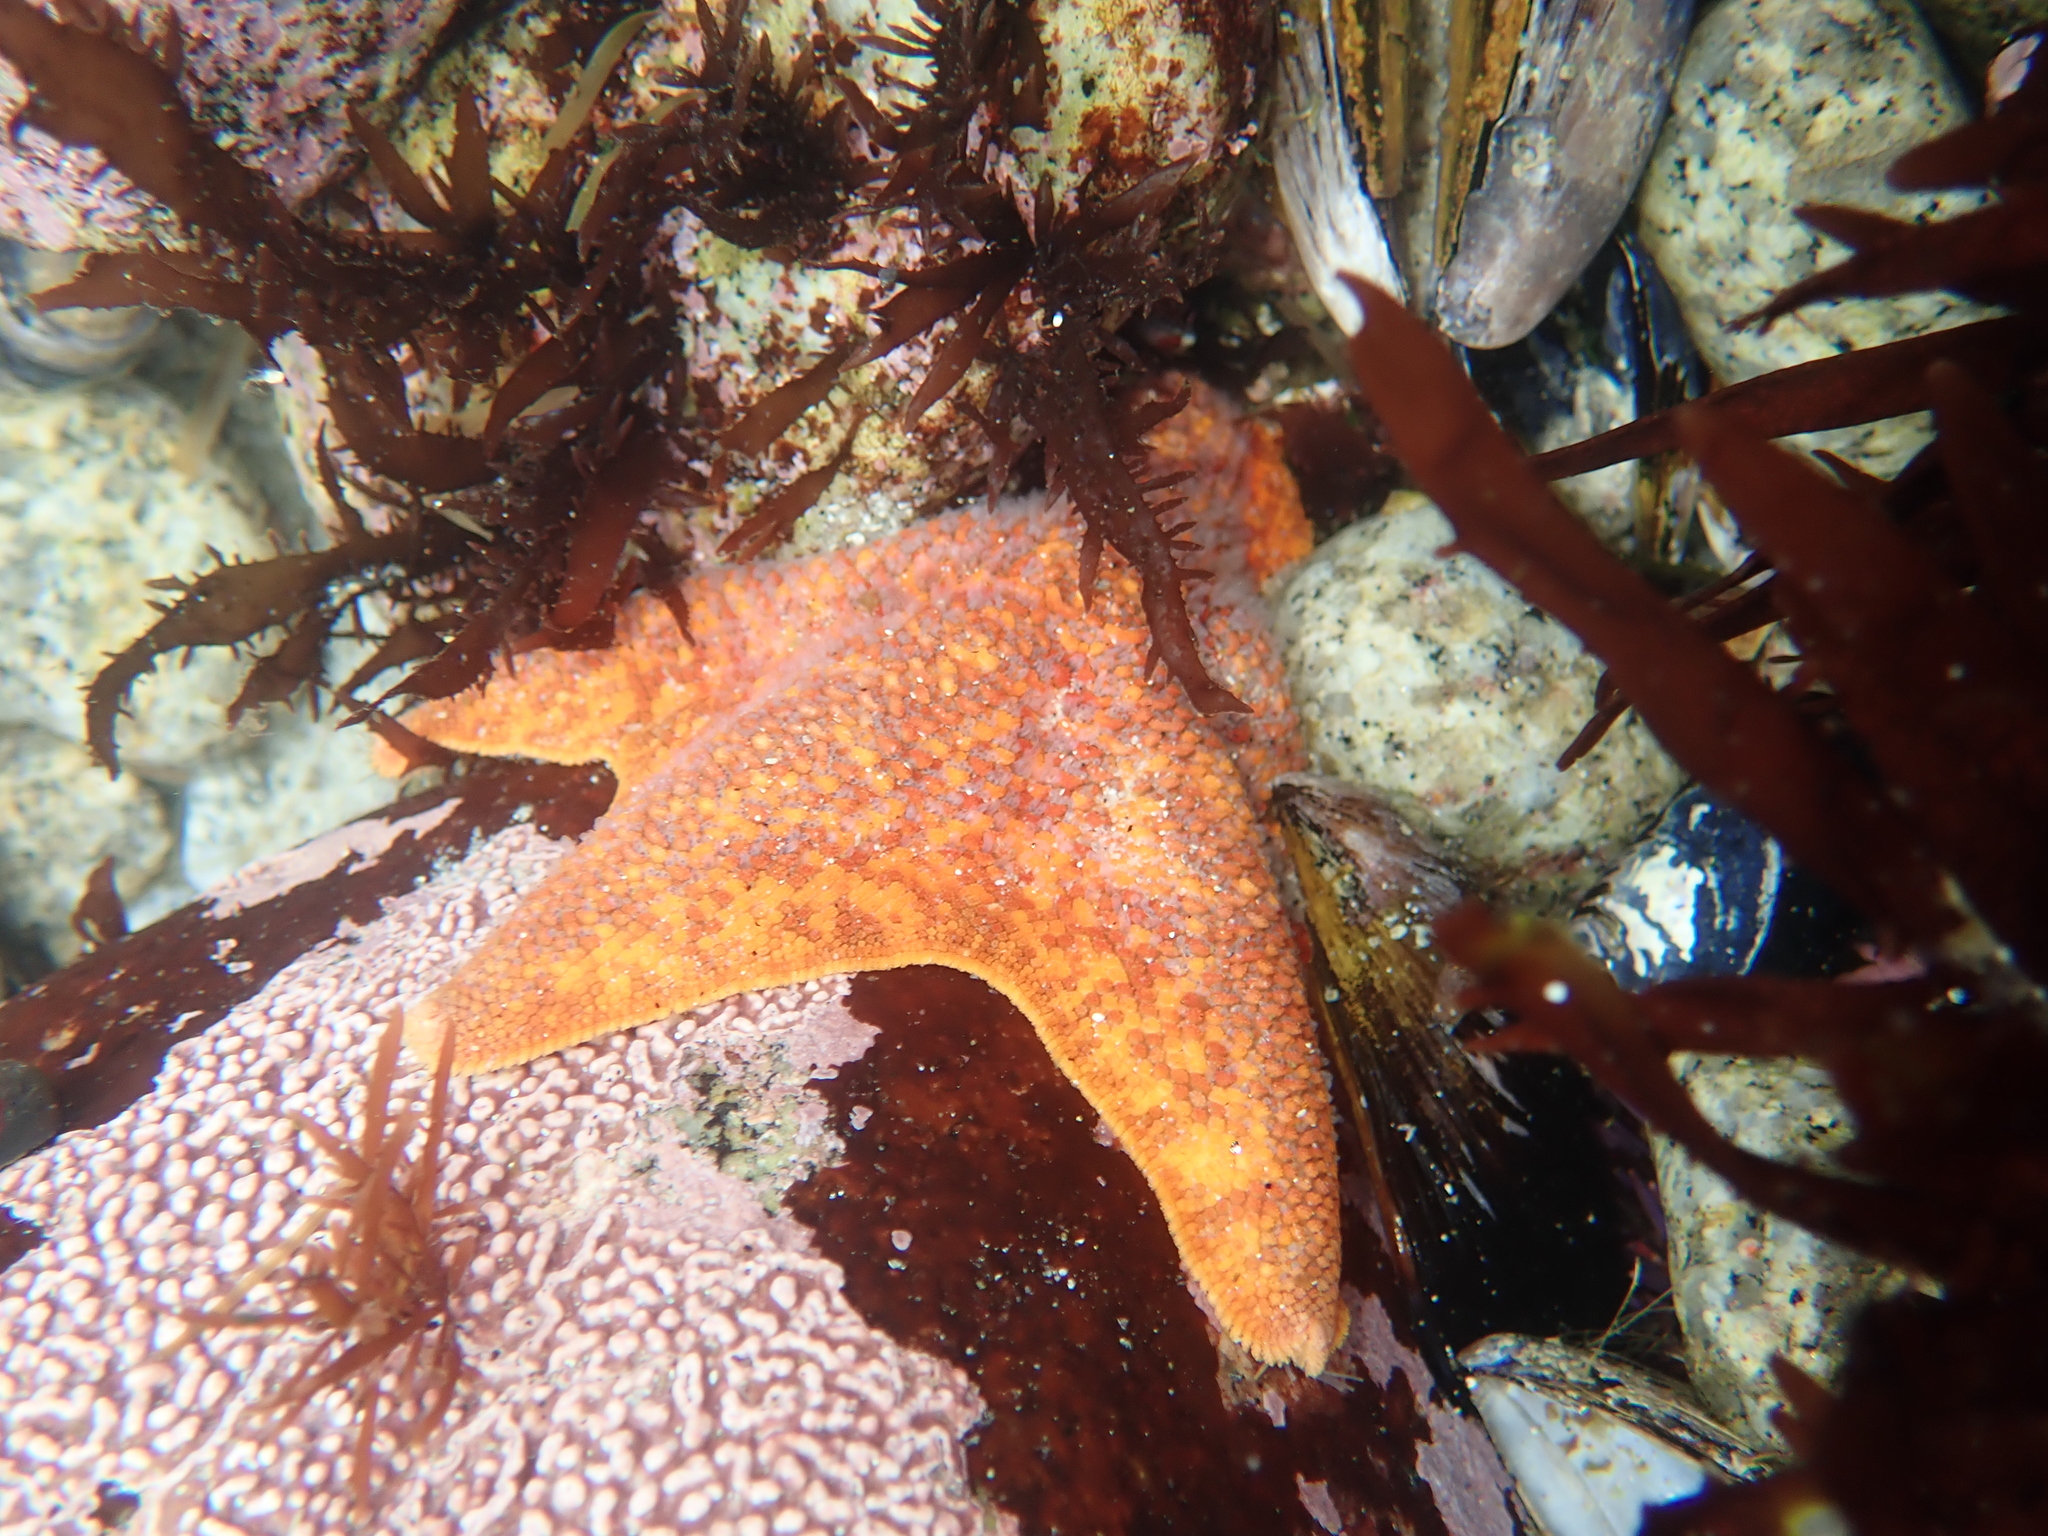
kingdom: Animalia
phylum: Echinodermata
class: Asteroidea
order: Valvatida
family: Asterinidae
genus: Patiria
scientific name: Patiria miniata
